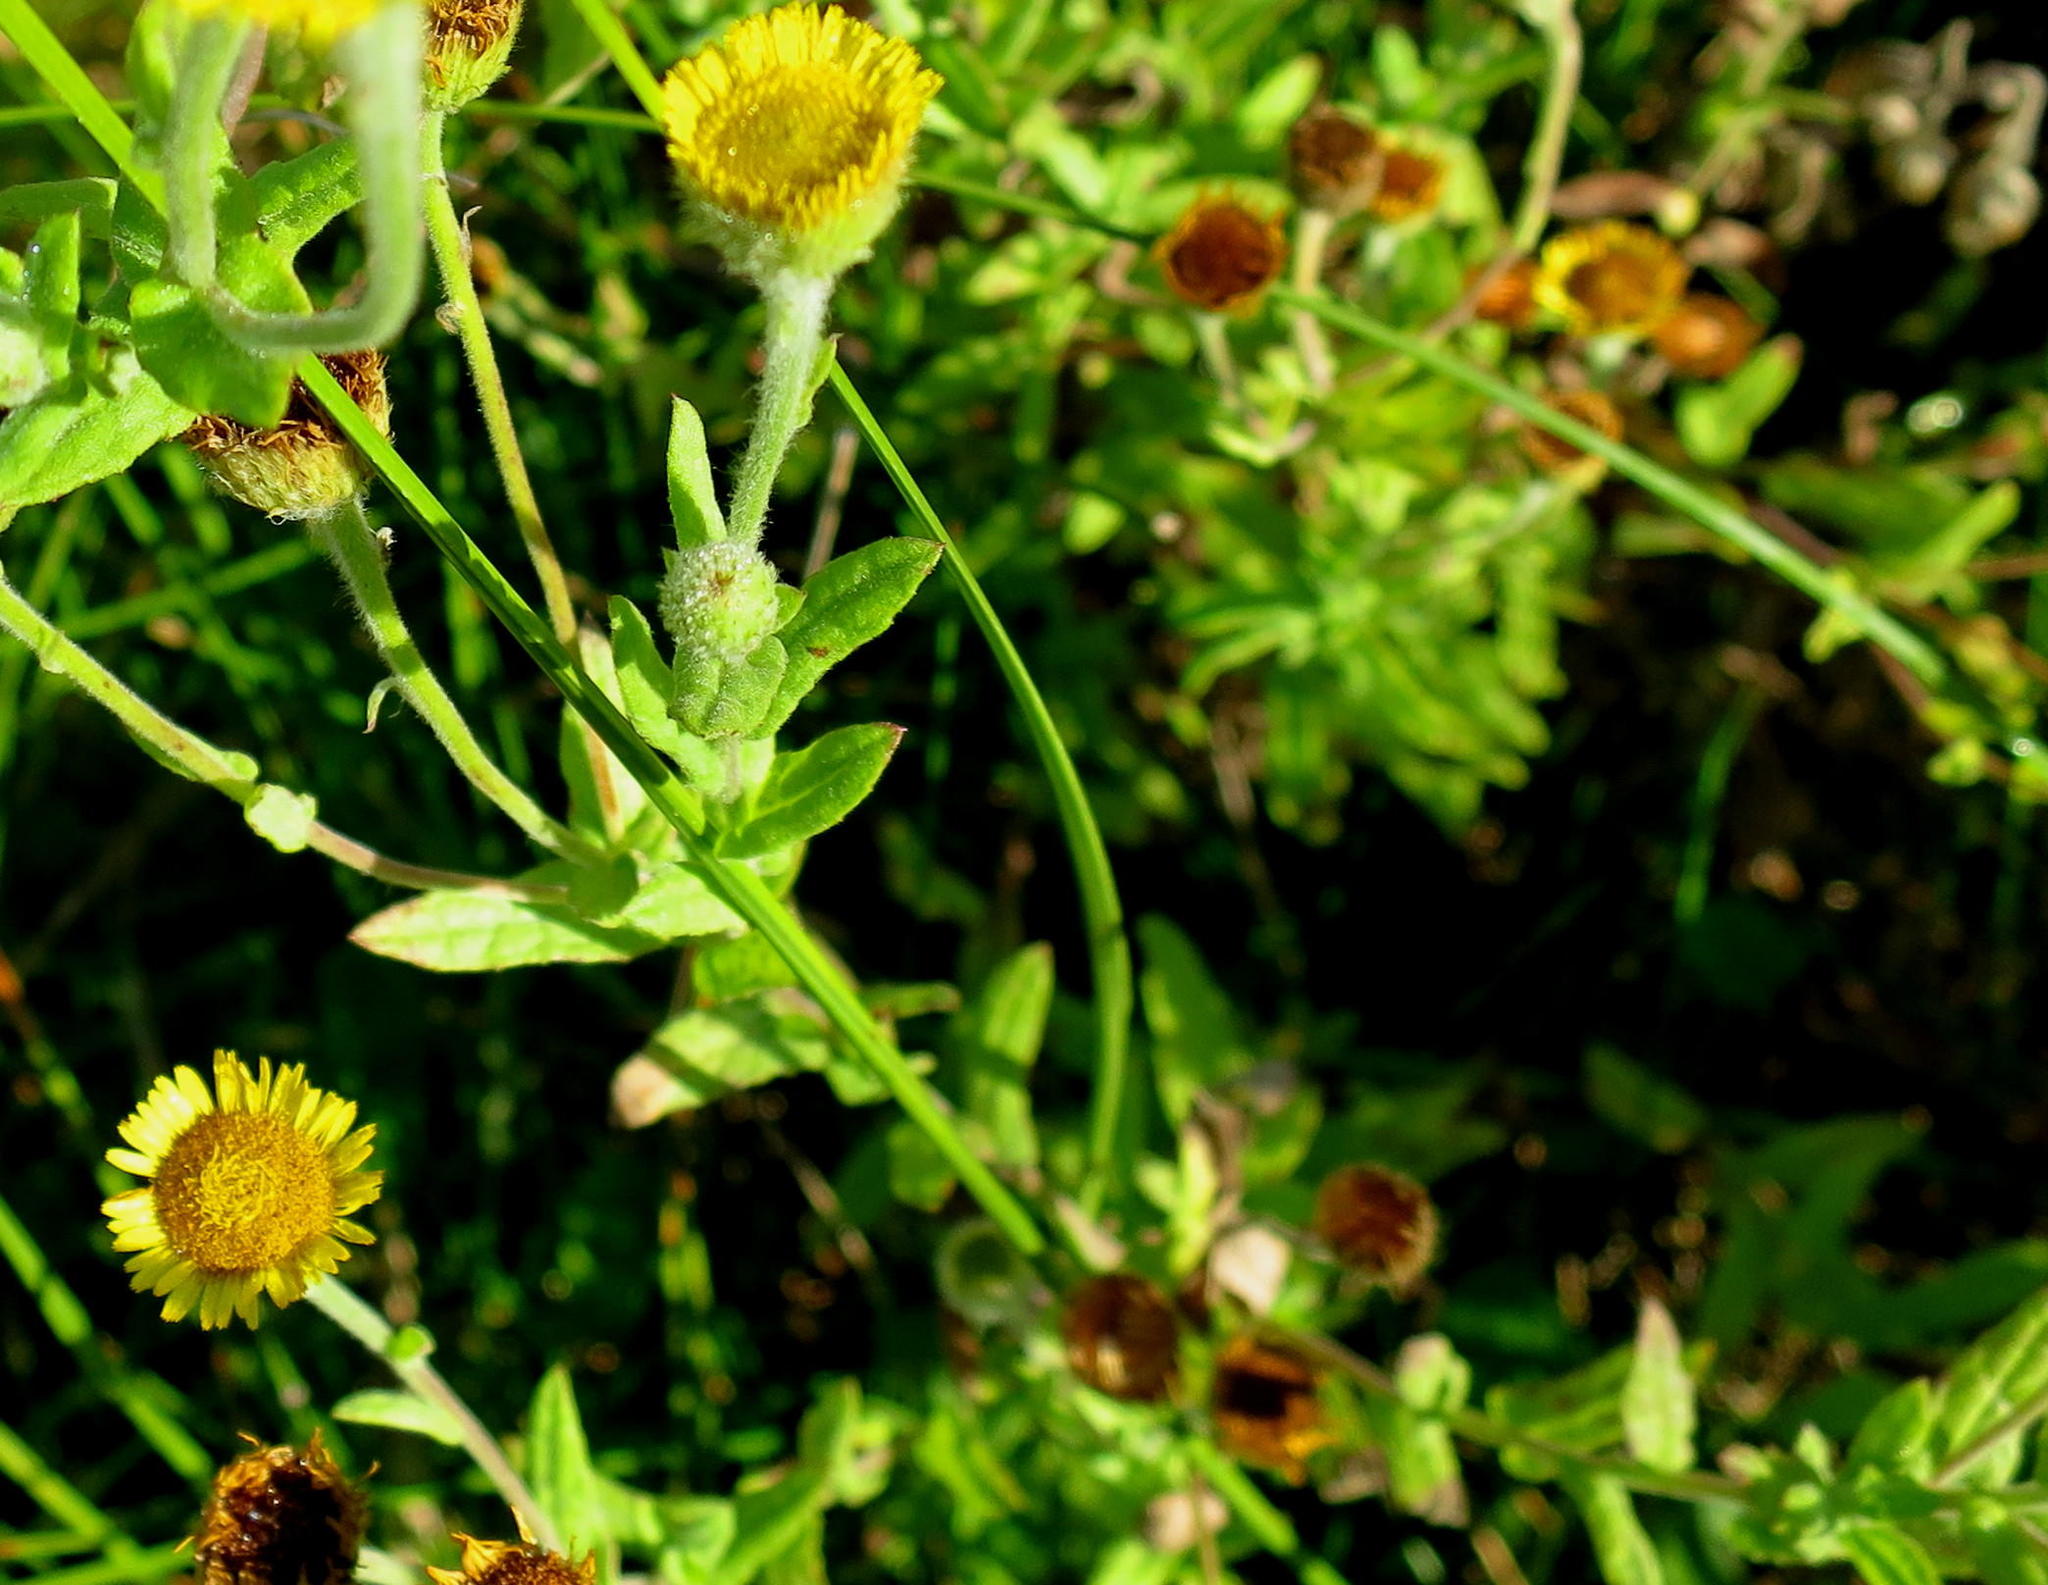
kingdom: Plantae
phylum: Tracheophyta
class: Magnoliopsida
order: Asterales
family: Asteraceae
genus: Pulicaria
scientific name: Pulicaria scabra
